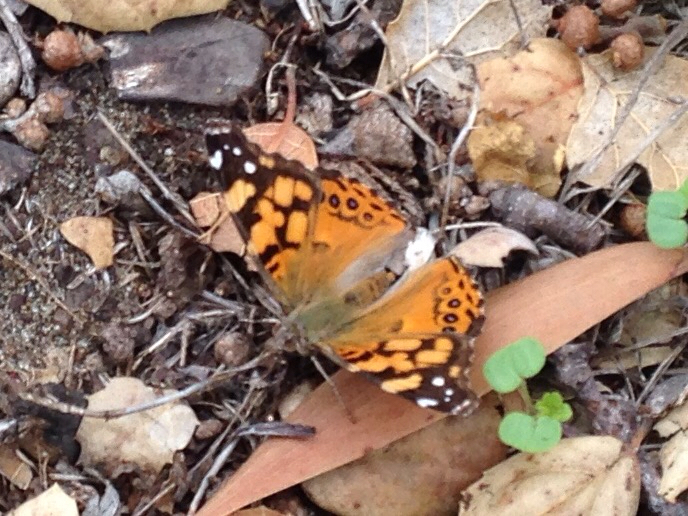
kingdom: Animalia
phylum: Arthropoda
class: Insecta
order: Lepidoptera
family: Nymphalidae
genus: Vanessa
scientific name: Vanessa annabella
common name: West coast lady
